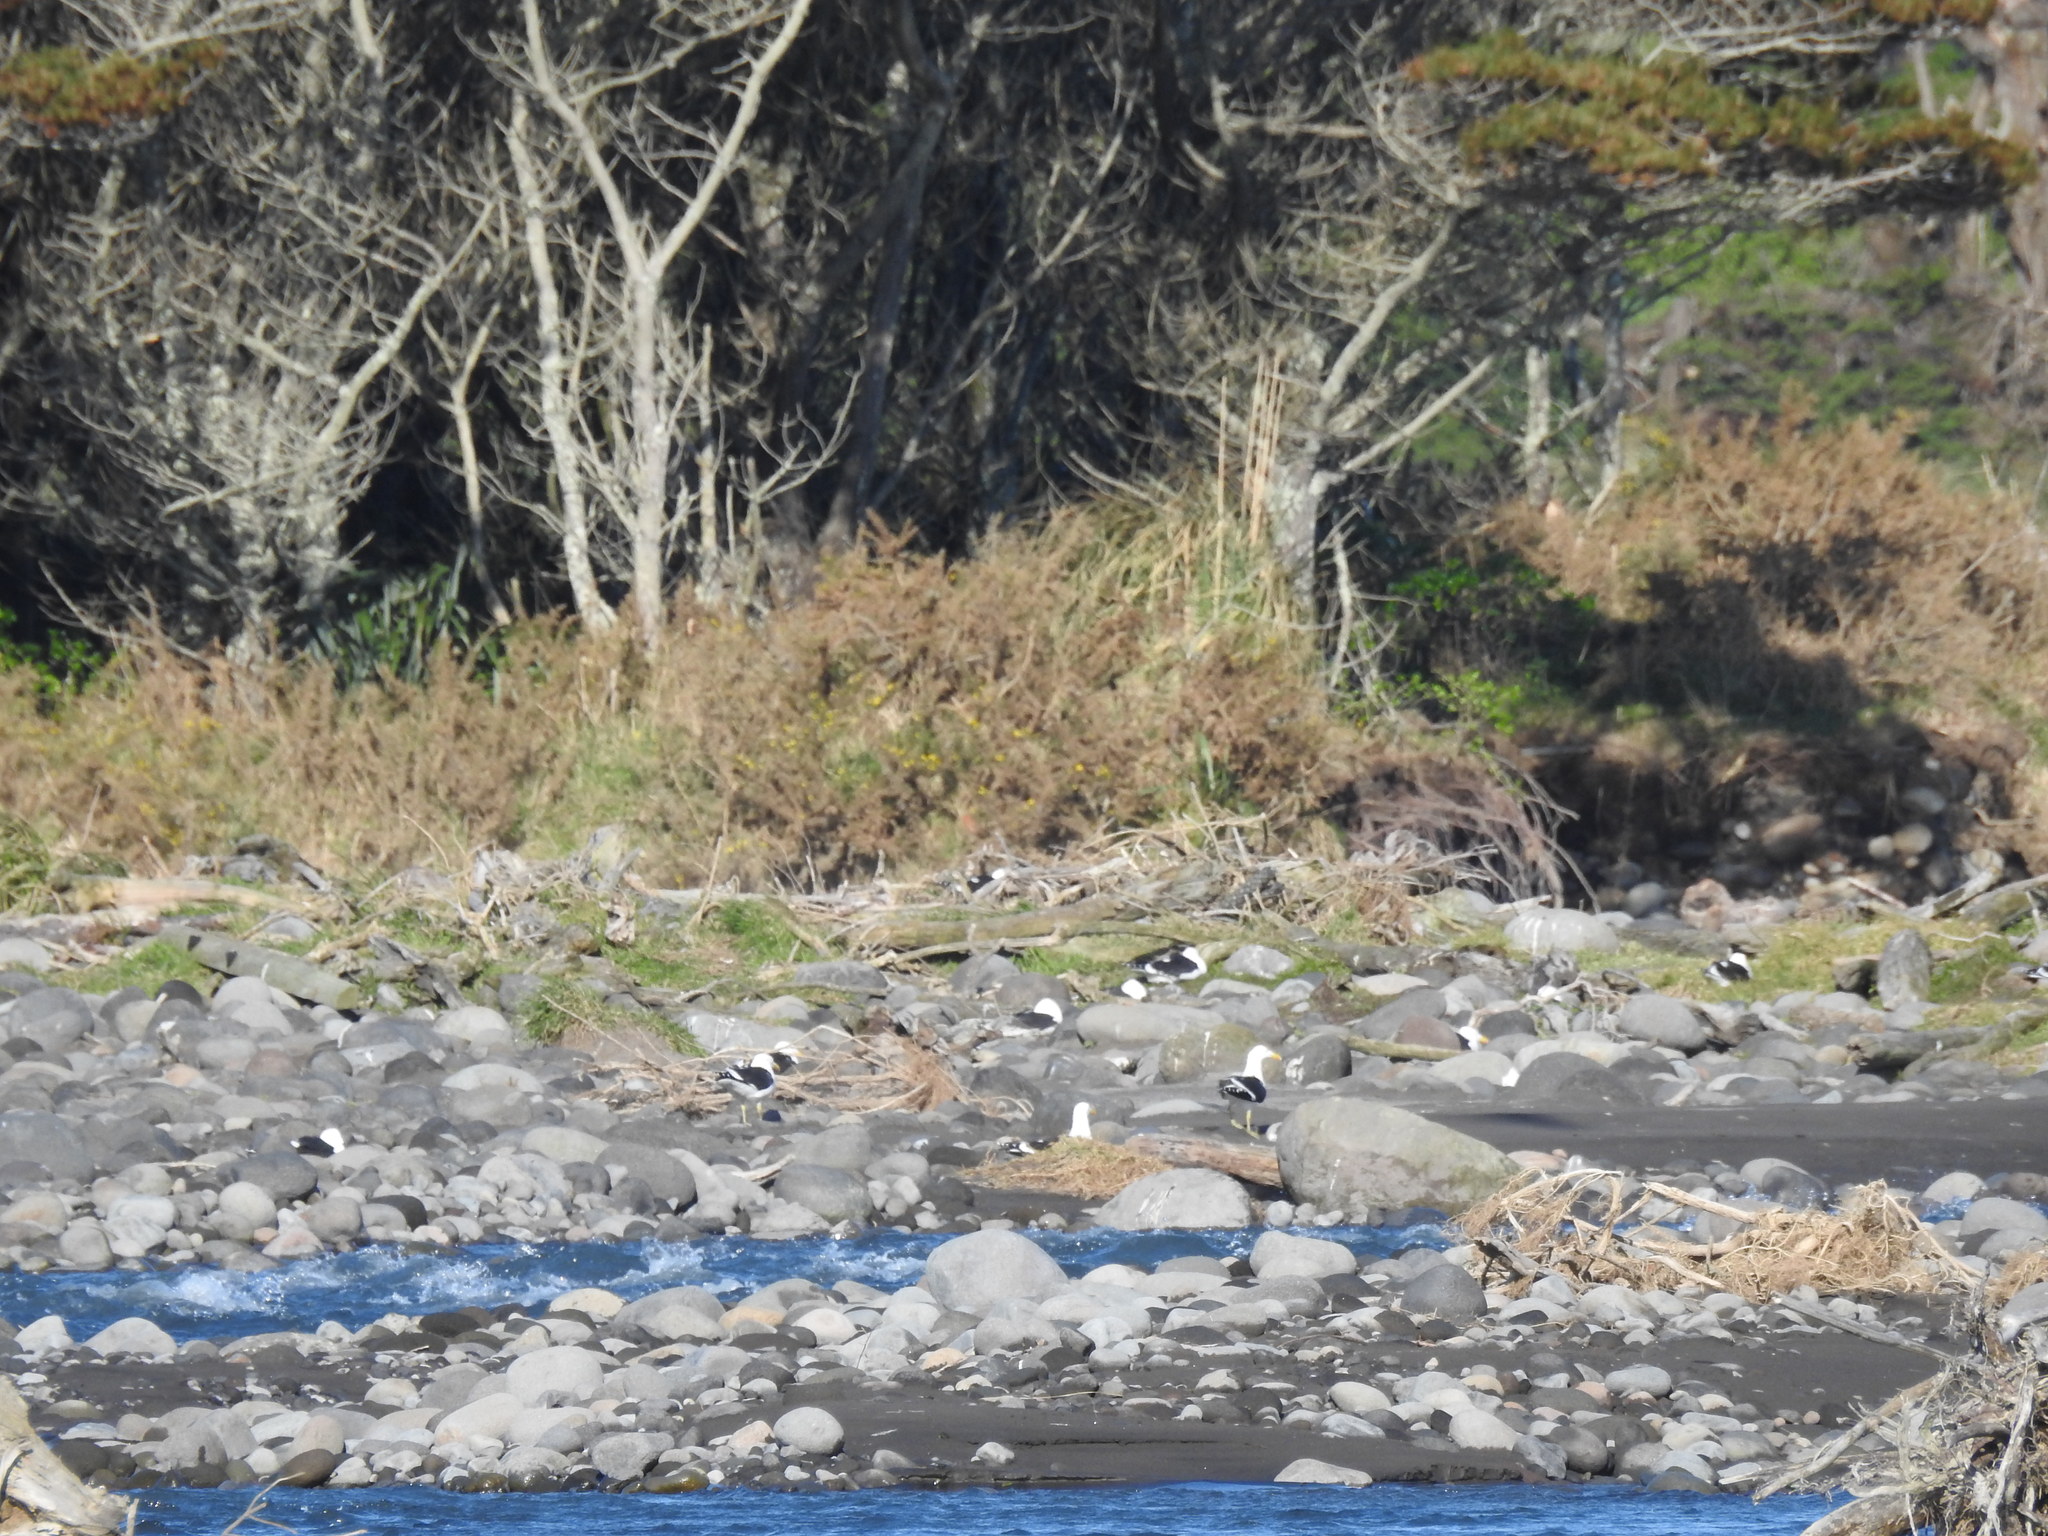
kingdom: Animalia
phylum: Chordata
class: Aves
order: Charadriiformes
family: Laridae
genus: Larus
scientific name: Larus dominicanus
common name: Kelp gull
